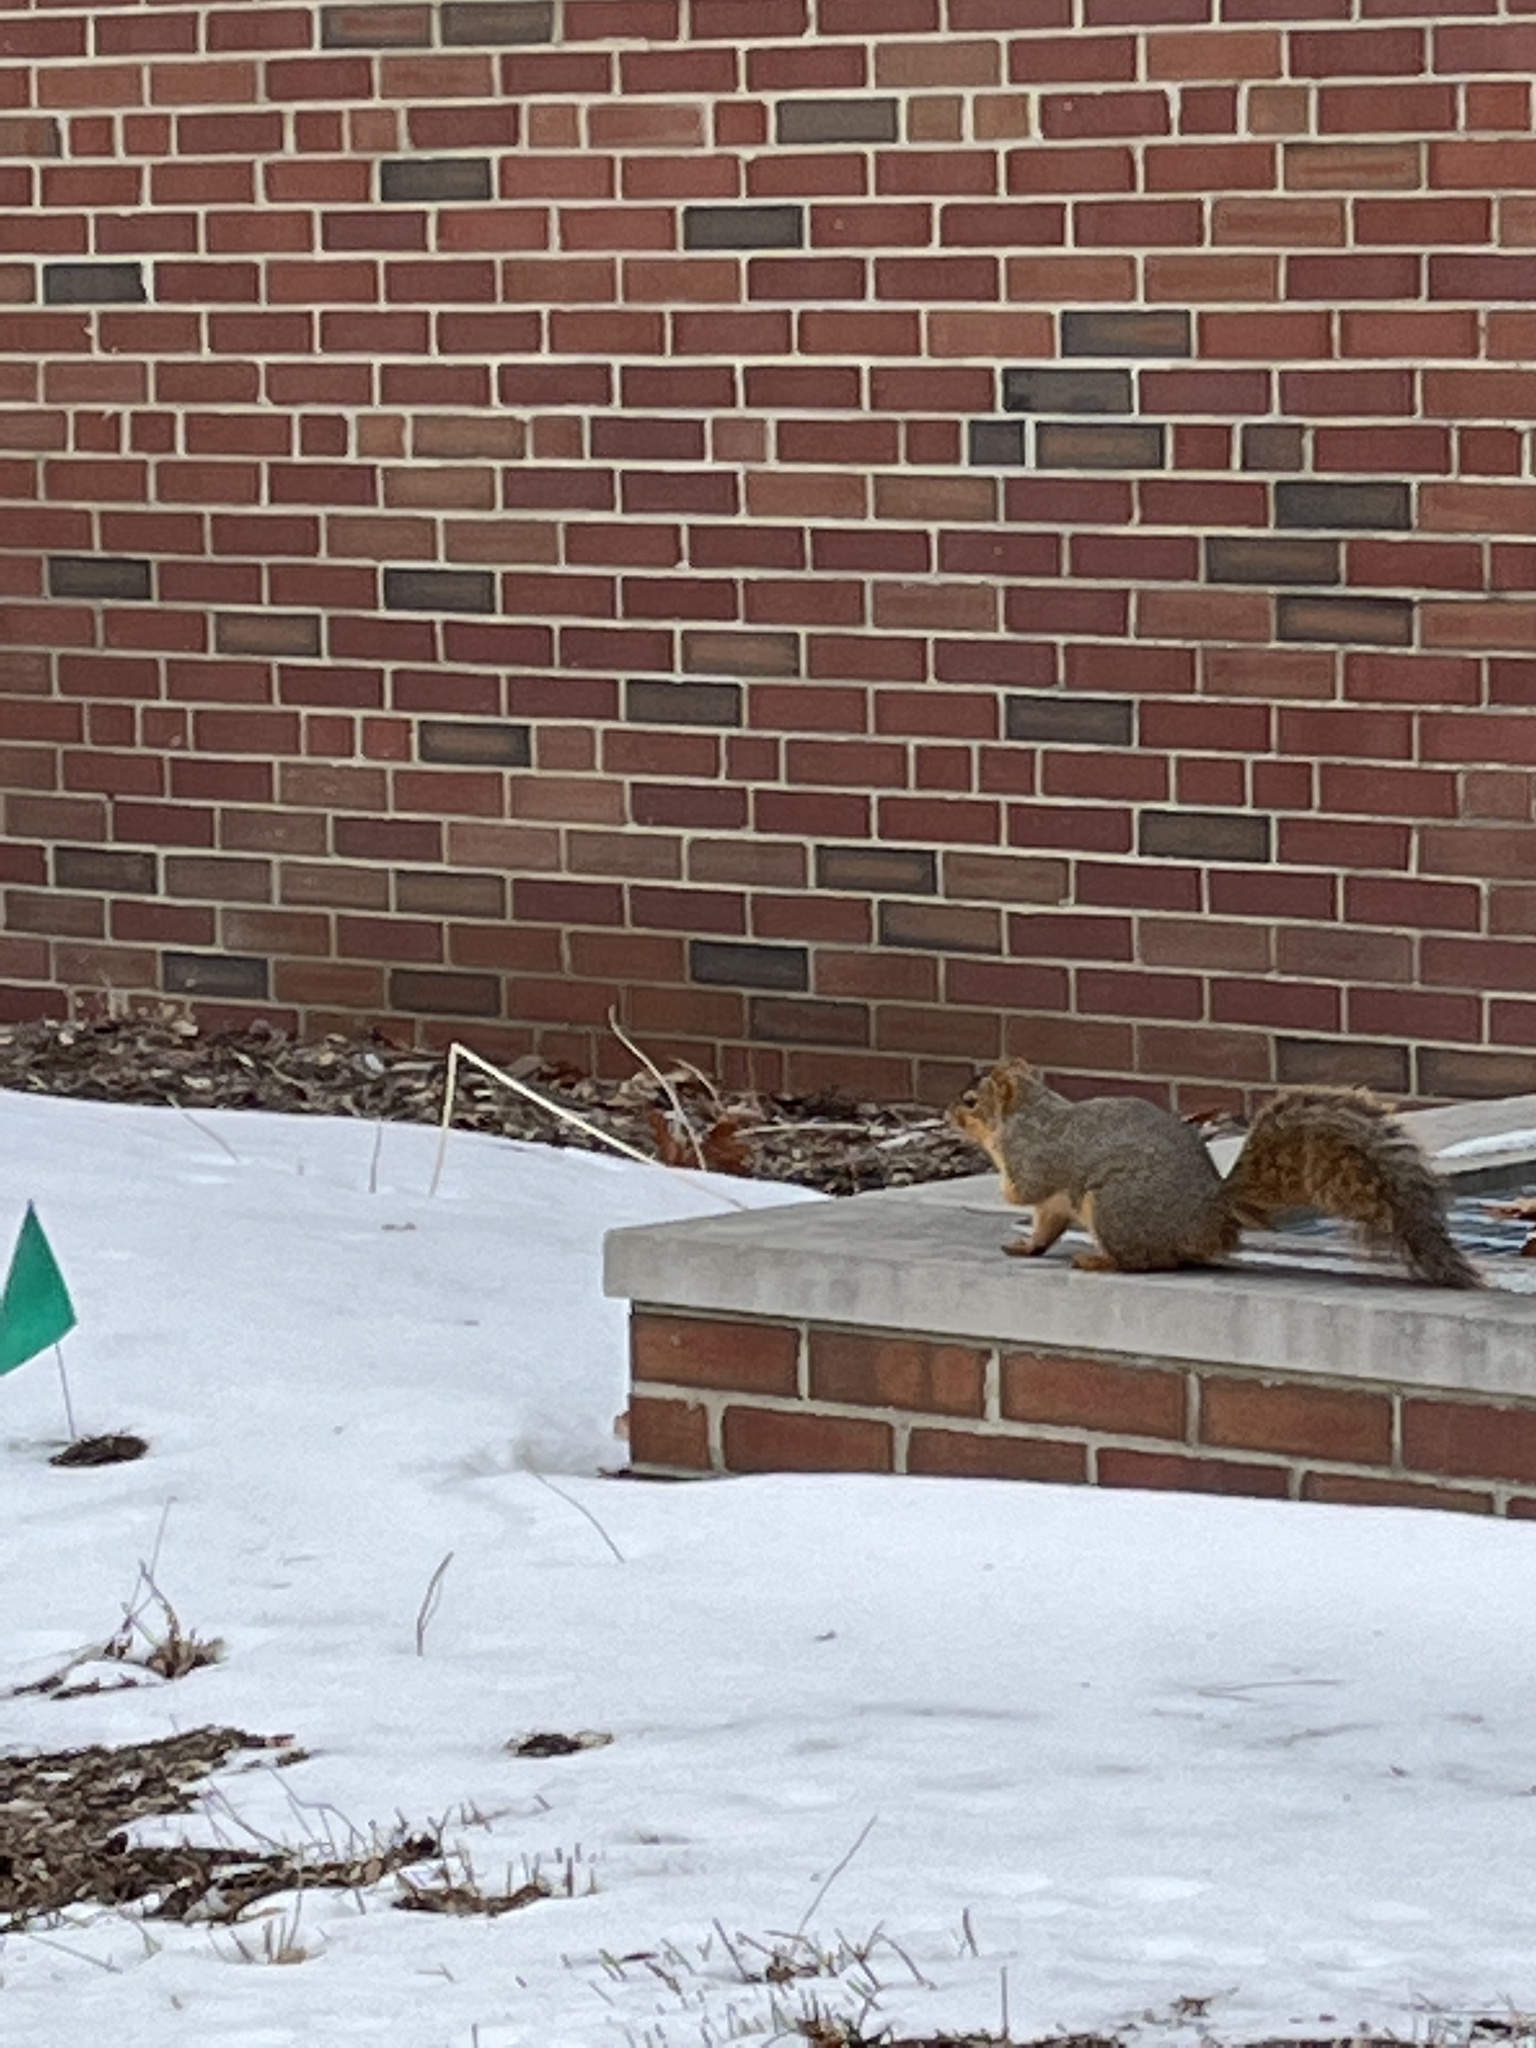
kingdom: Animalia
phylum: Chordata
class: Mammalia
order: Rodentia
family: Sciuridae
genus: Sciurus
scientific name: Sciurus niger
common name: Fox squirrel
